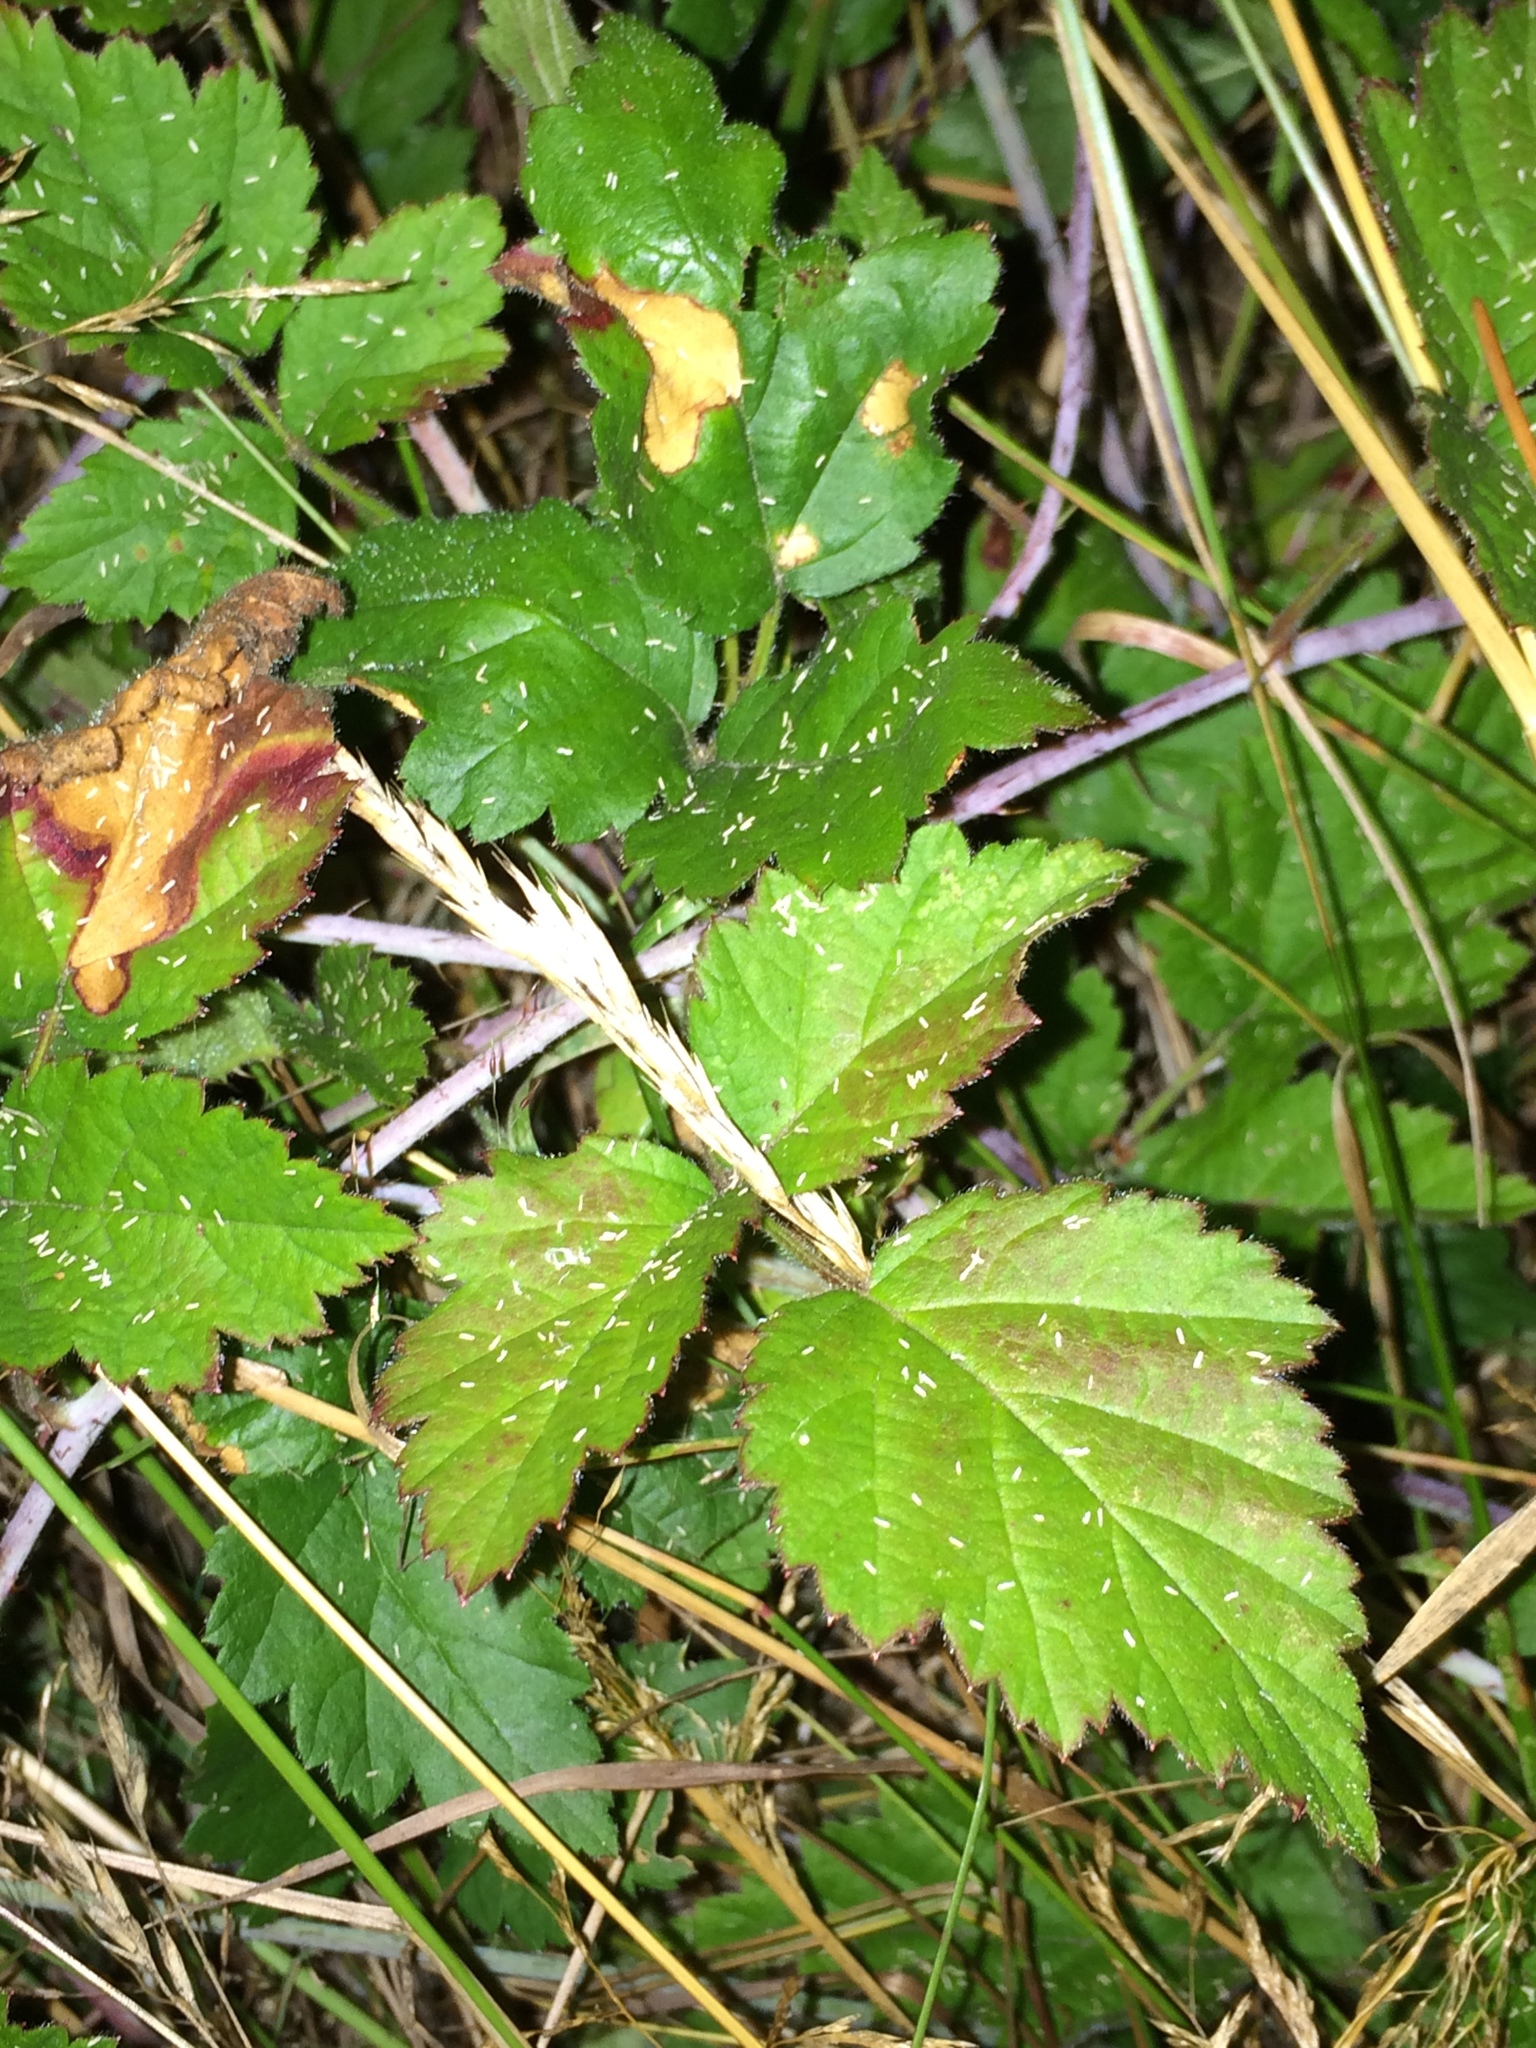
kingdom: Plantae
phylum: Tracheophyta
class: Magnoliopsida
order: Rosales
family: Rosaceae
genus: Rubus
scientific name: Rubus ursinus
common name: Pacific blackberry
